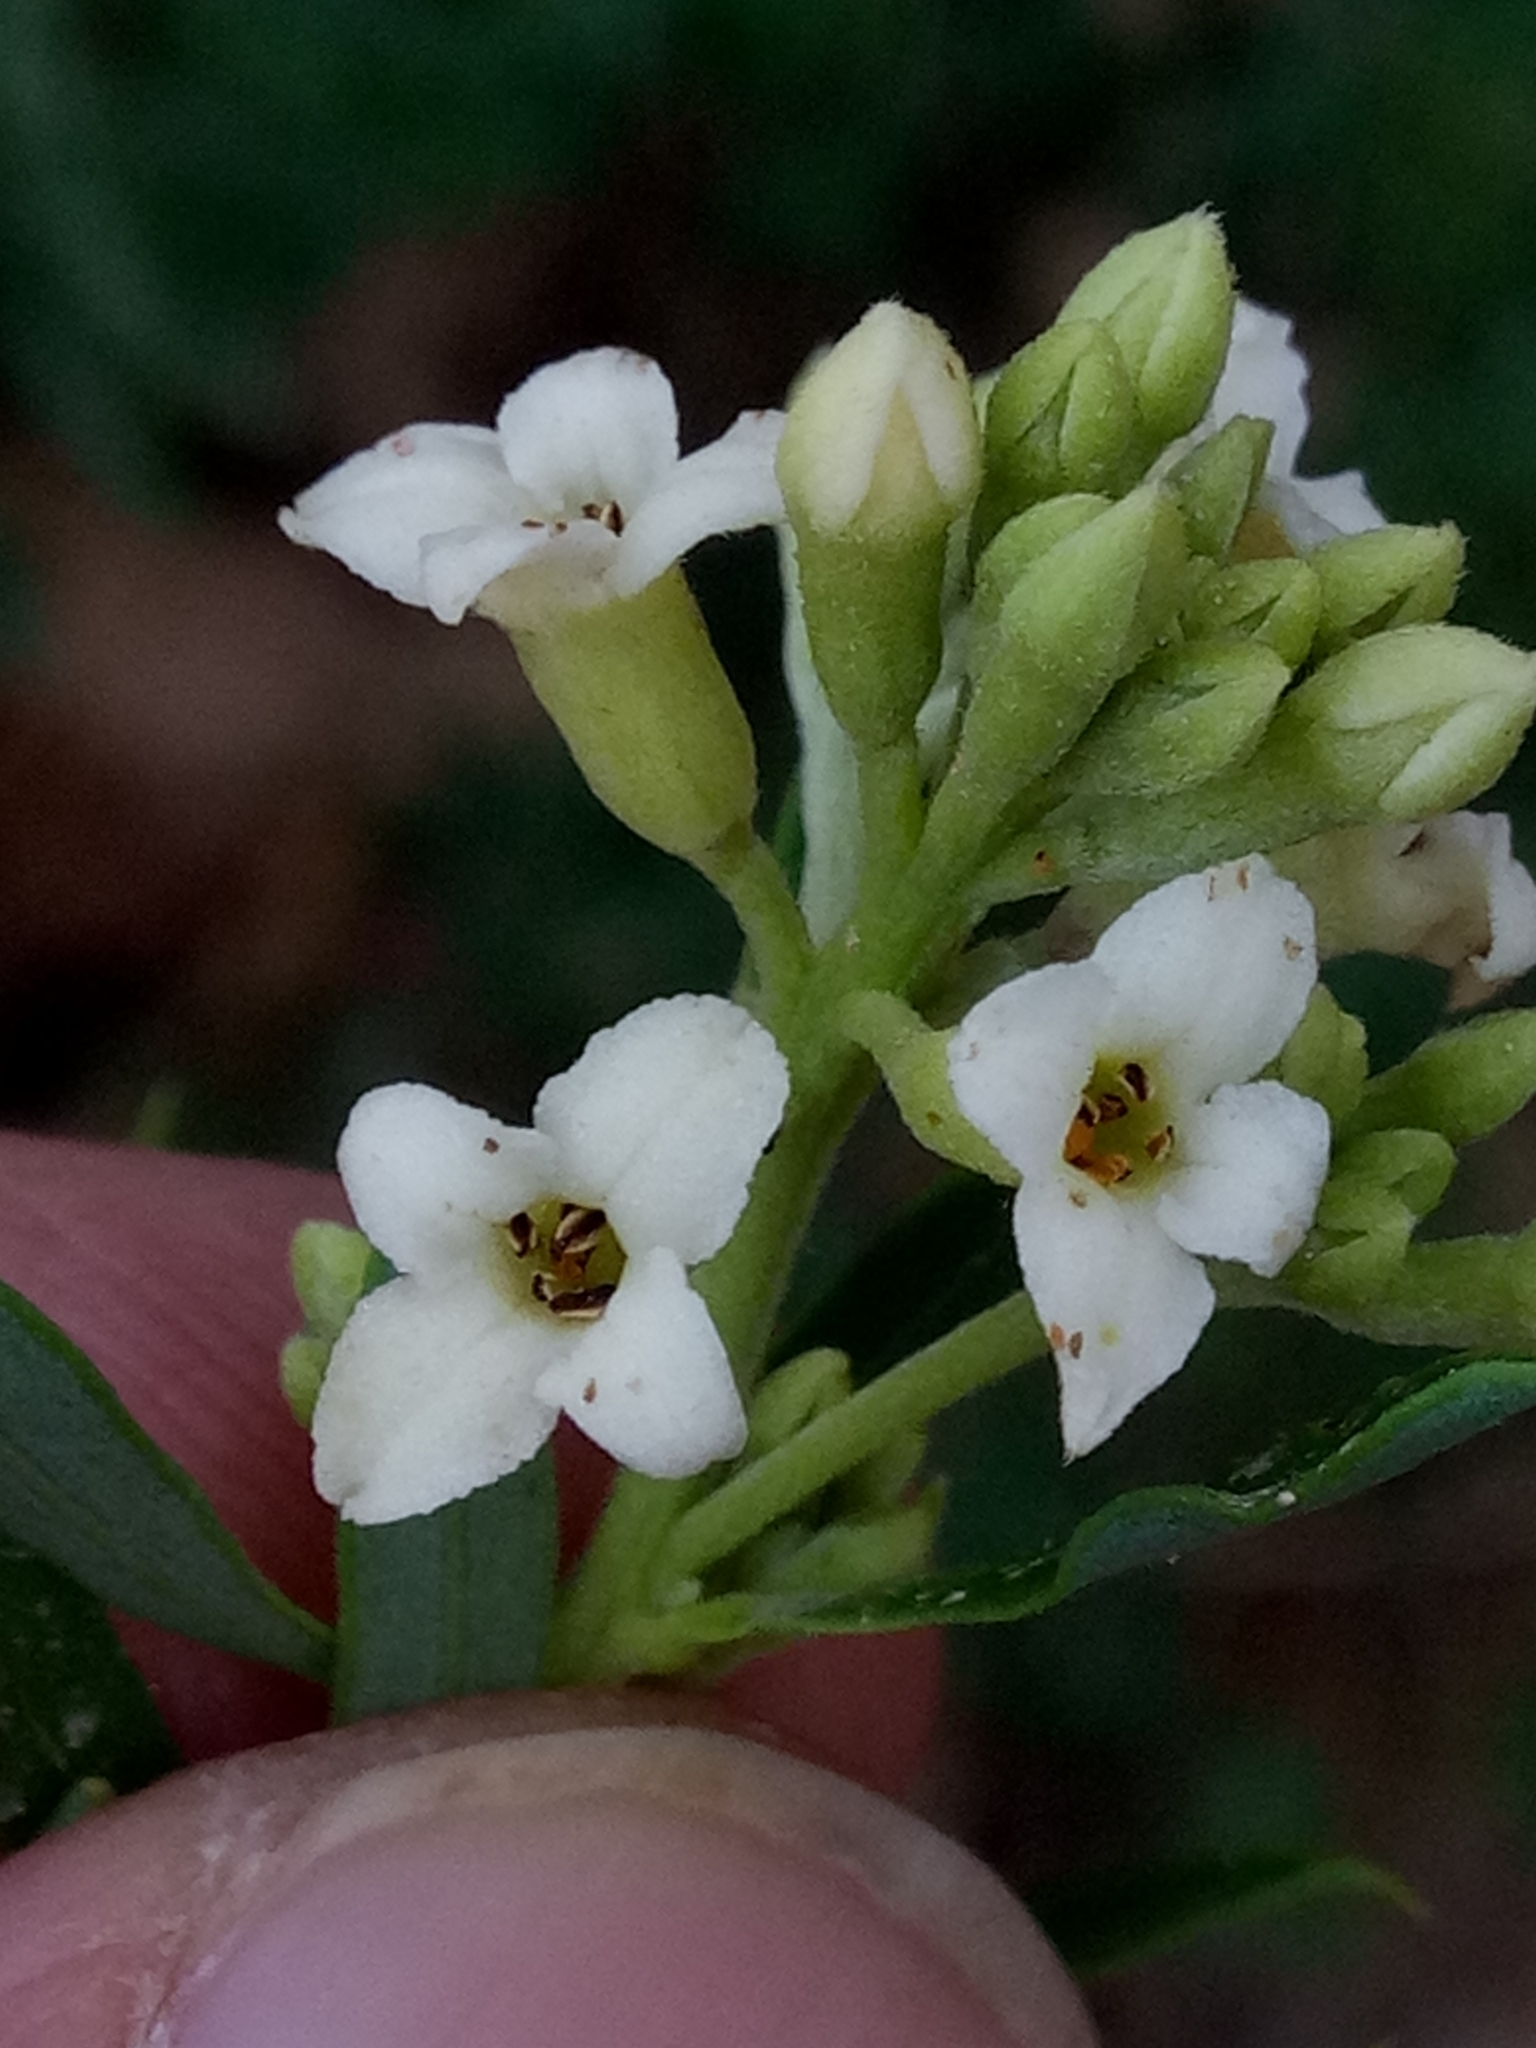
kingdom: Plantae
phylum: Tracheophyta
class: Magnoliopsida
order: Malvales
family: Thymelaeaceae
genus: Daphne
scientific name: Daphne gnidium
